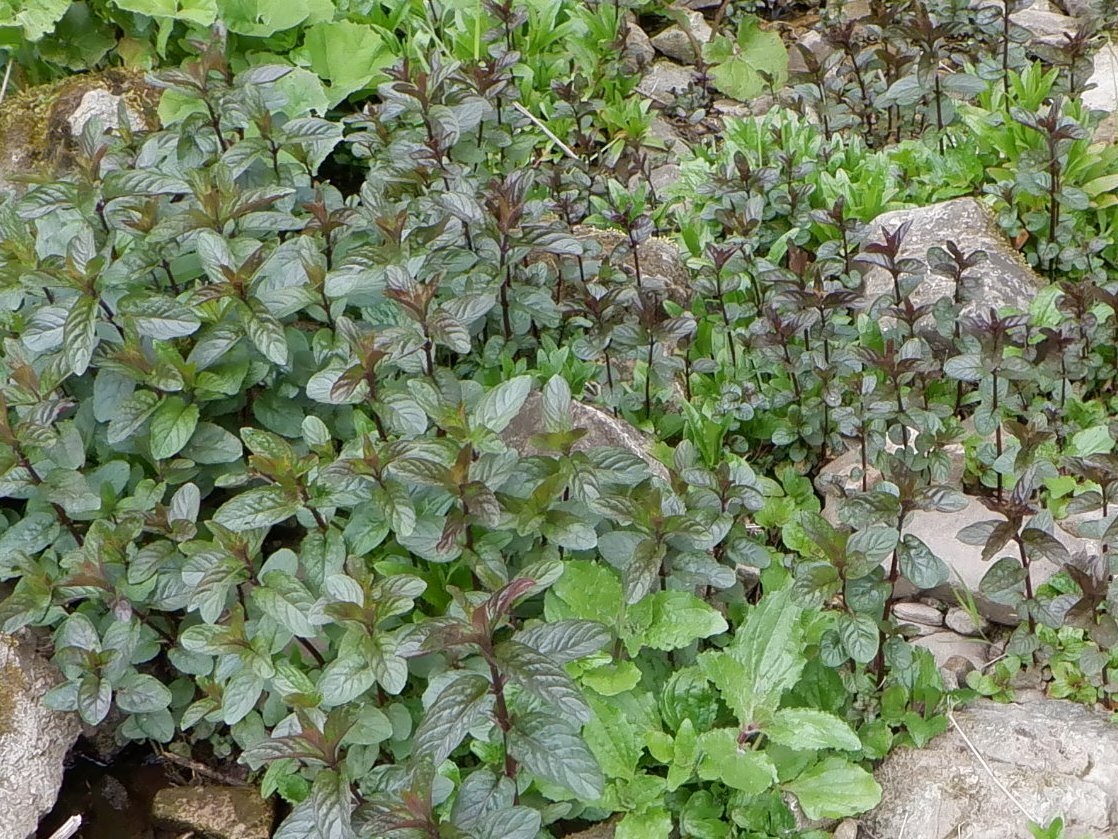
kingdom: Plantae
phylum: Tracheophyta
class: Magnoliopsida
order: Lamiales
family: Lamiaceae
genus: Mentha
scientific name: Mentha aquatica
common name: Water mint
